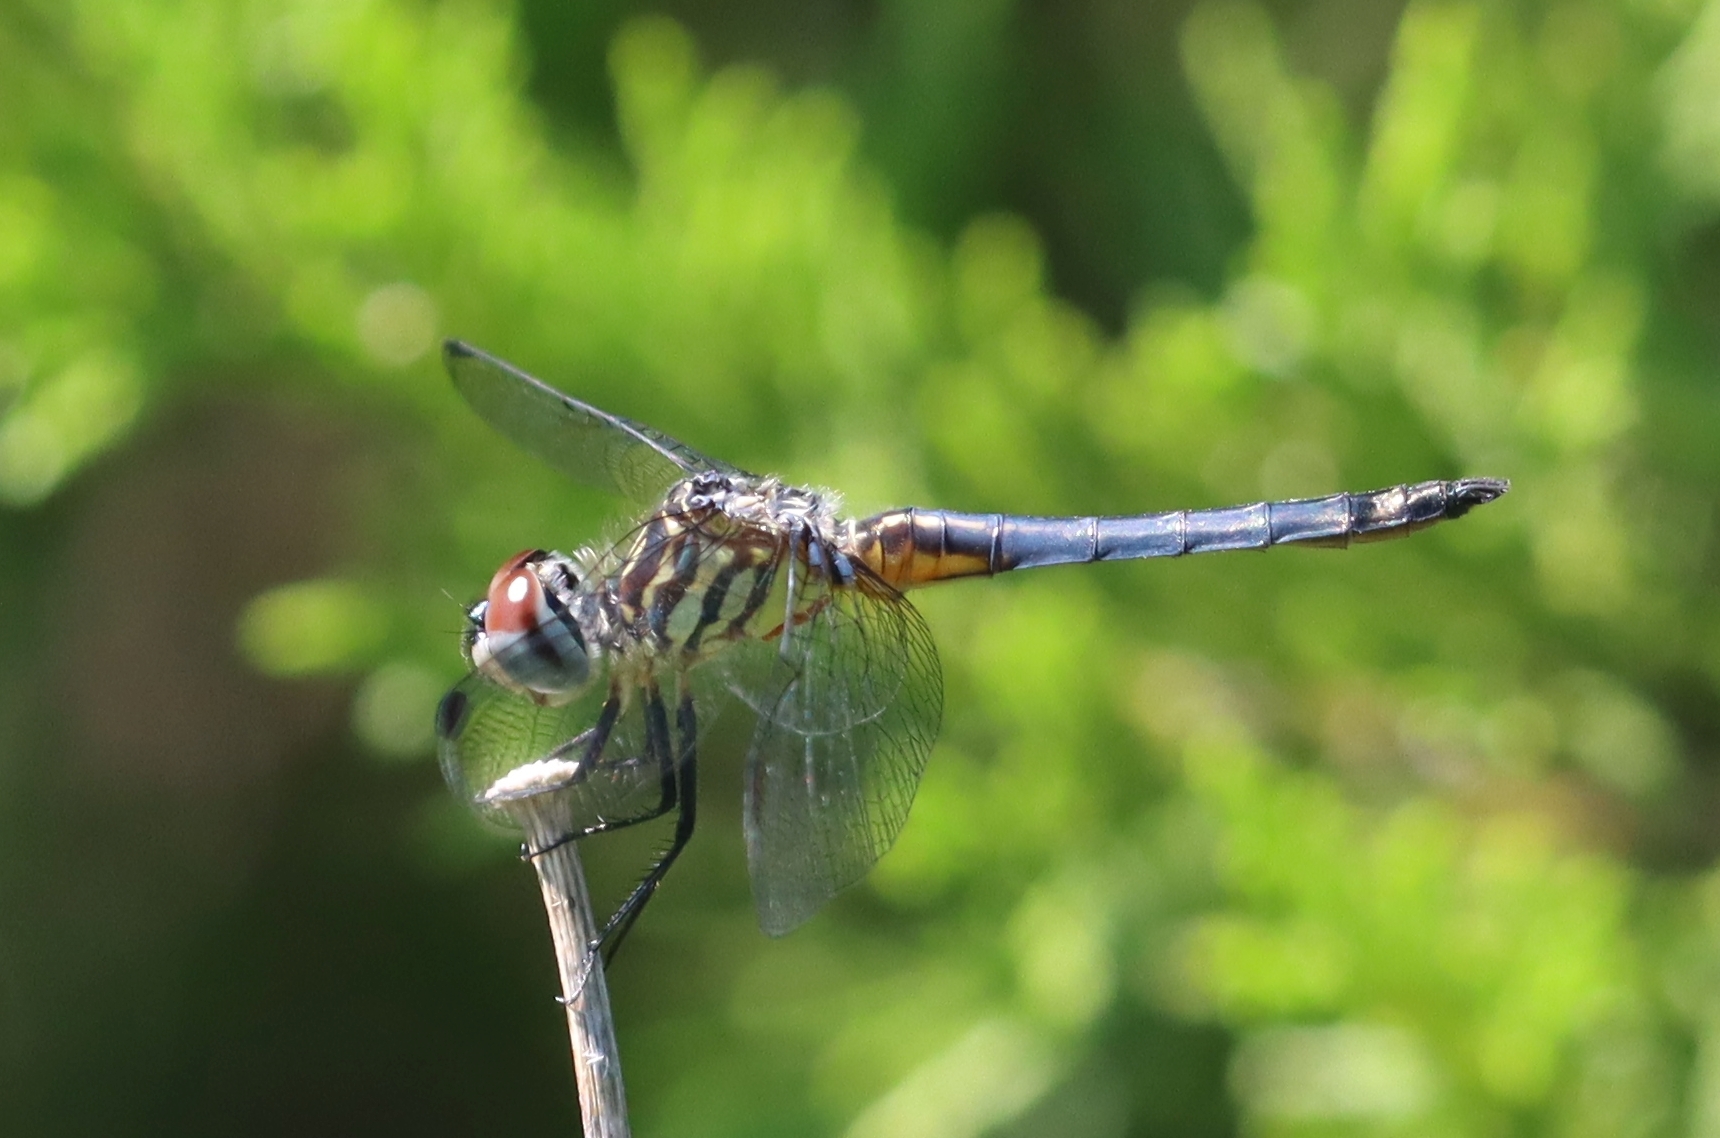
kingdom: Animalia
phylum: Arthropoda
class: Insecta
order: Odonata
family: Libellulidae
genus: Pachydiplax
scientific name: Pachydiplax longipennis
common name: Blue dasher
